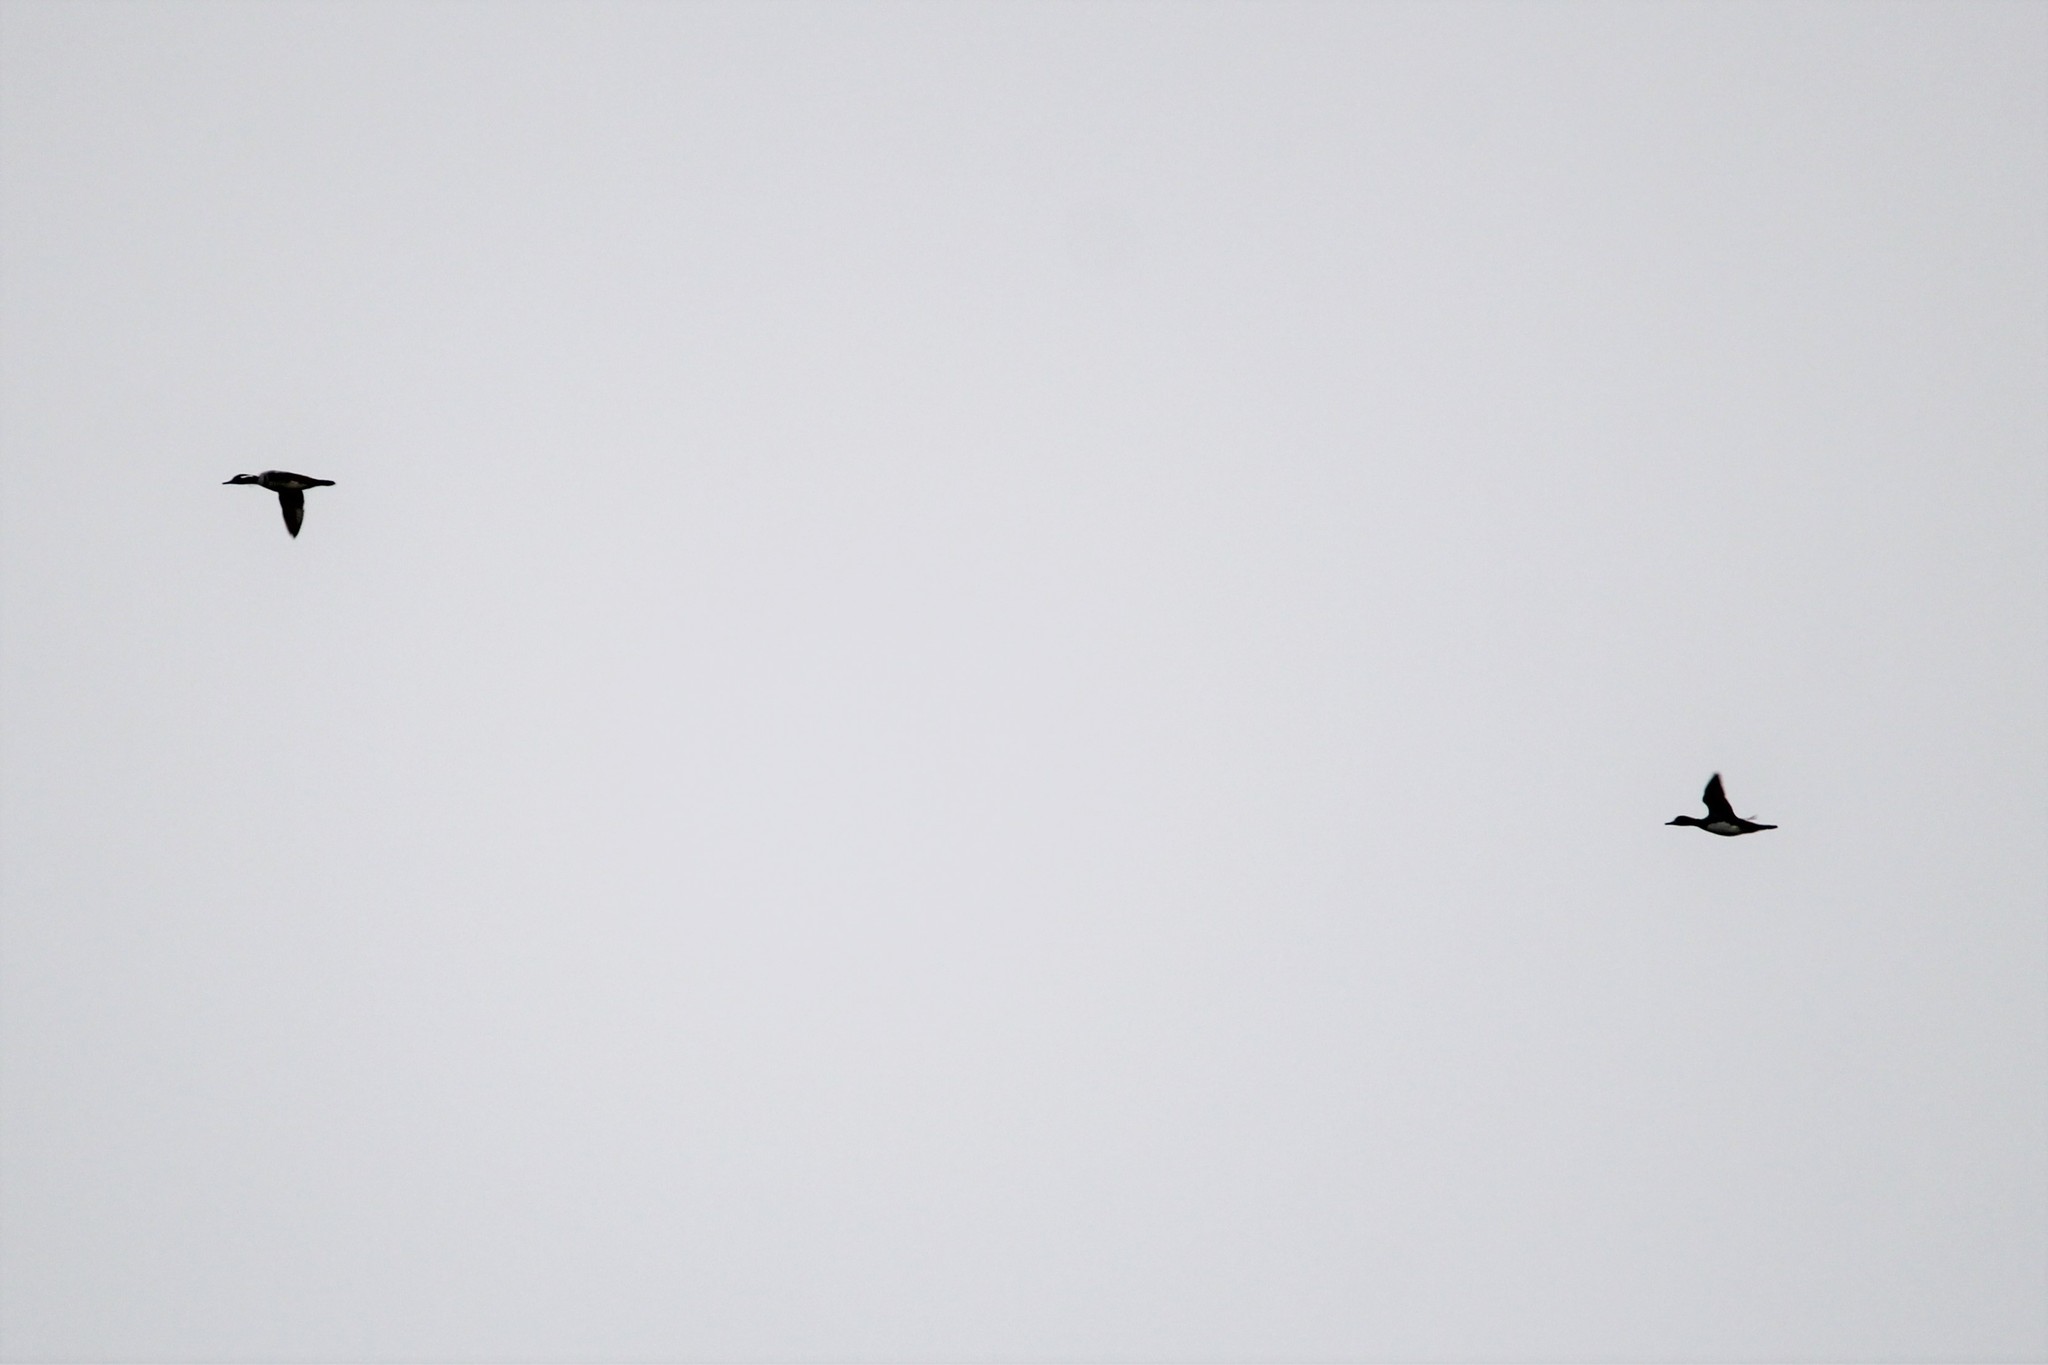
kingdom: Animalia
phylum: Chordata
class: Aves
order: Anseriformes
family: Anatidae
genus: Lophodytes
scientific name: Lophodytes cucullatus
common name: Hooded merganser
